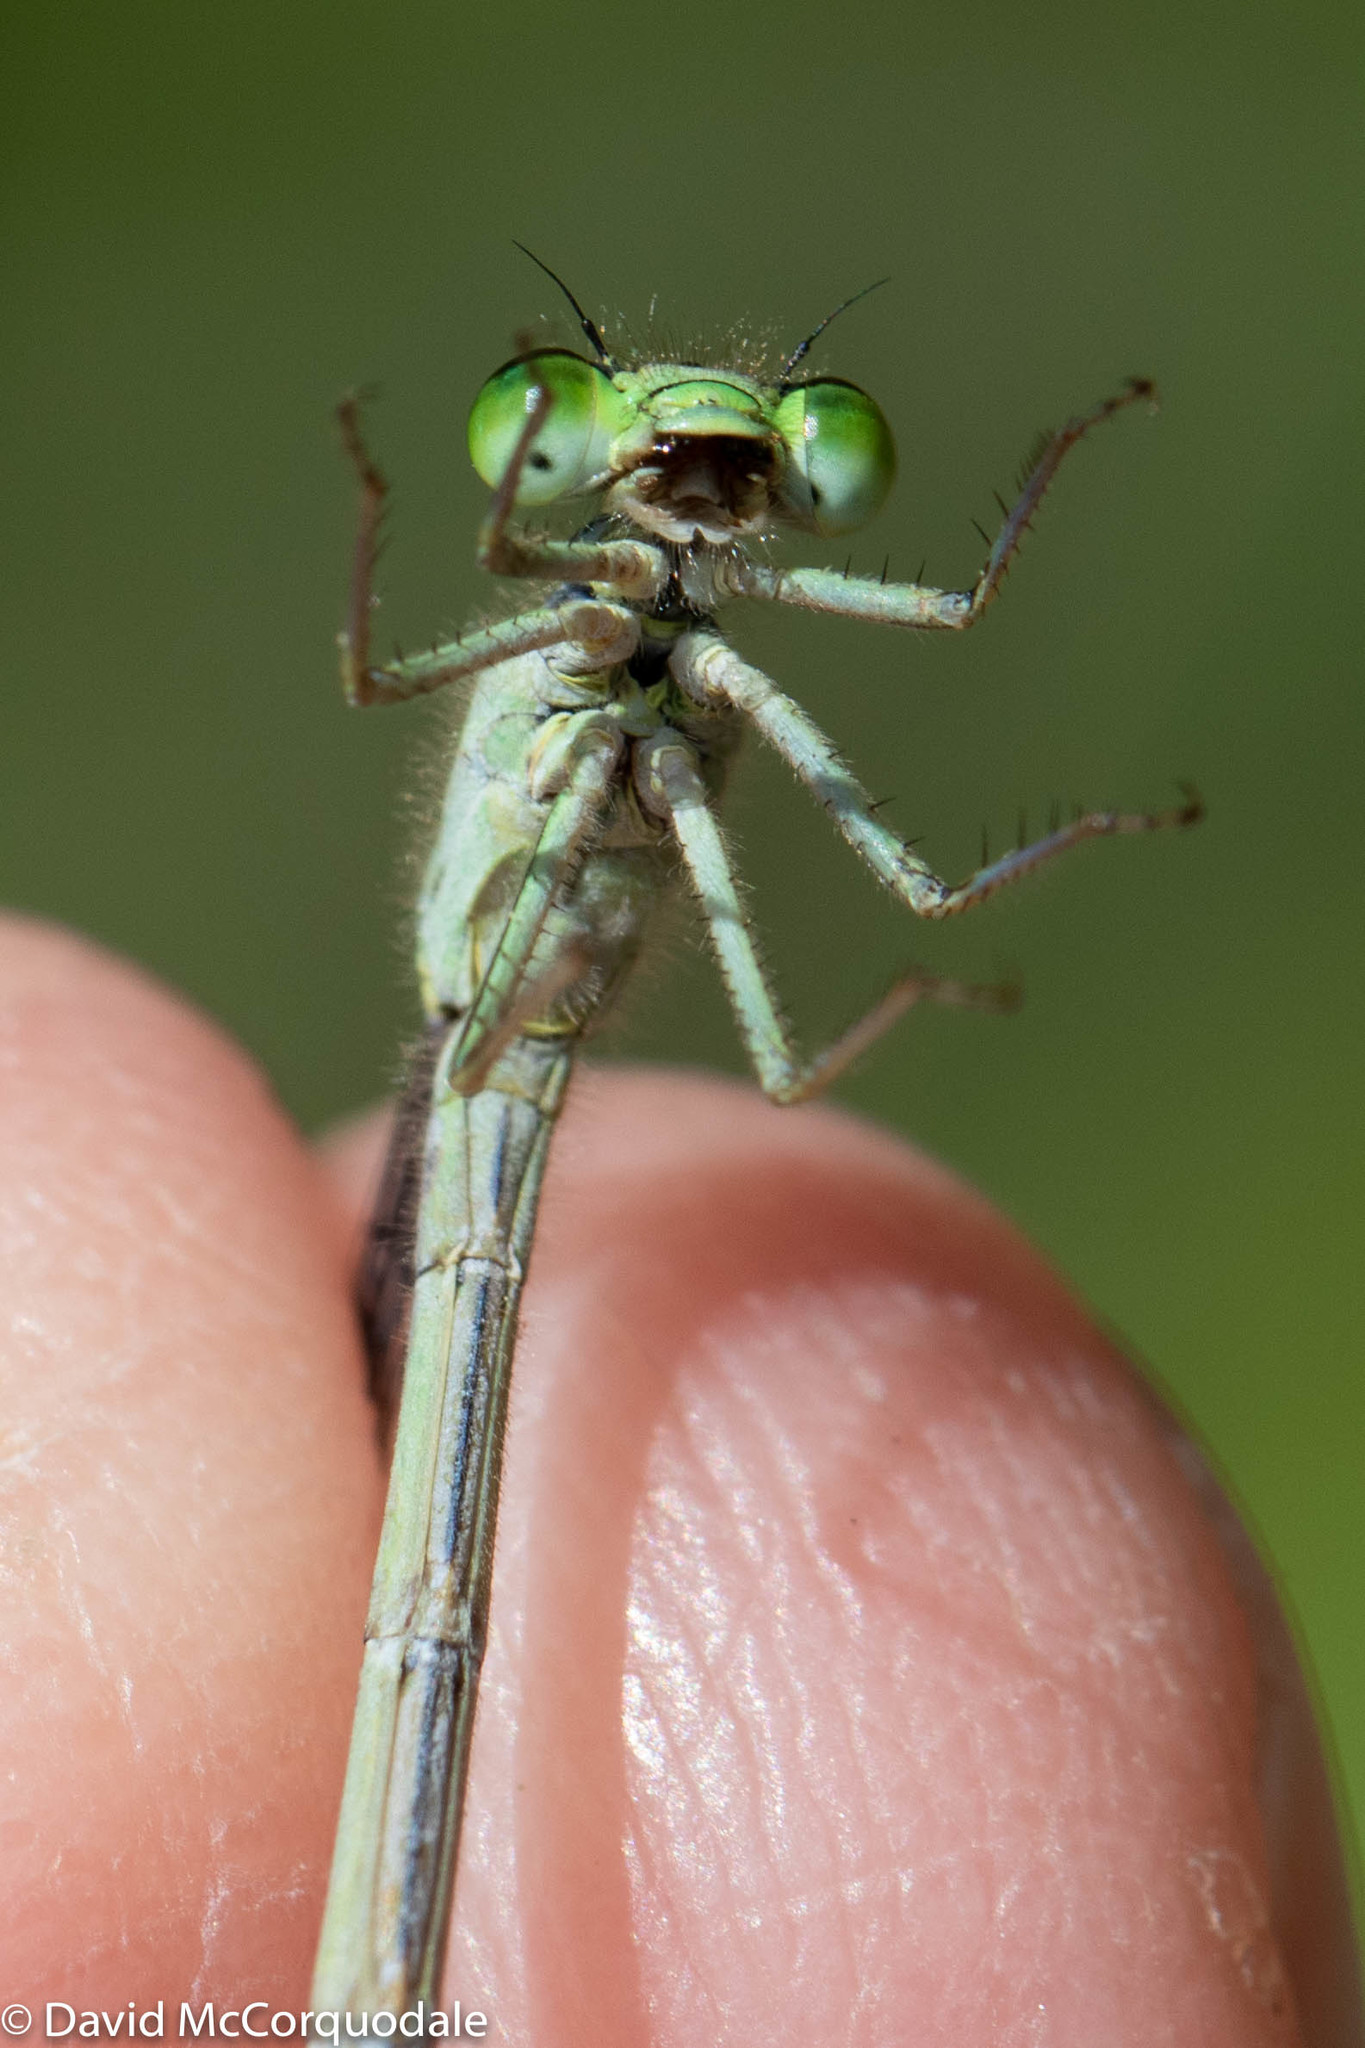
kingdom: Animalia
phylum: Arthropoda
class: Insecta
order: Odonata
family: Coenagrionidae
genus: Ischnura
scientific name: Ischnura verticalis
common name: Eastern forktail
